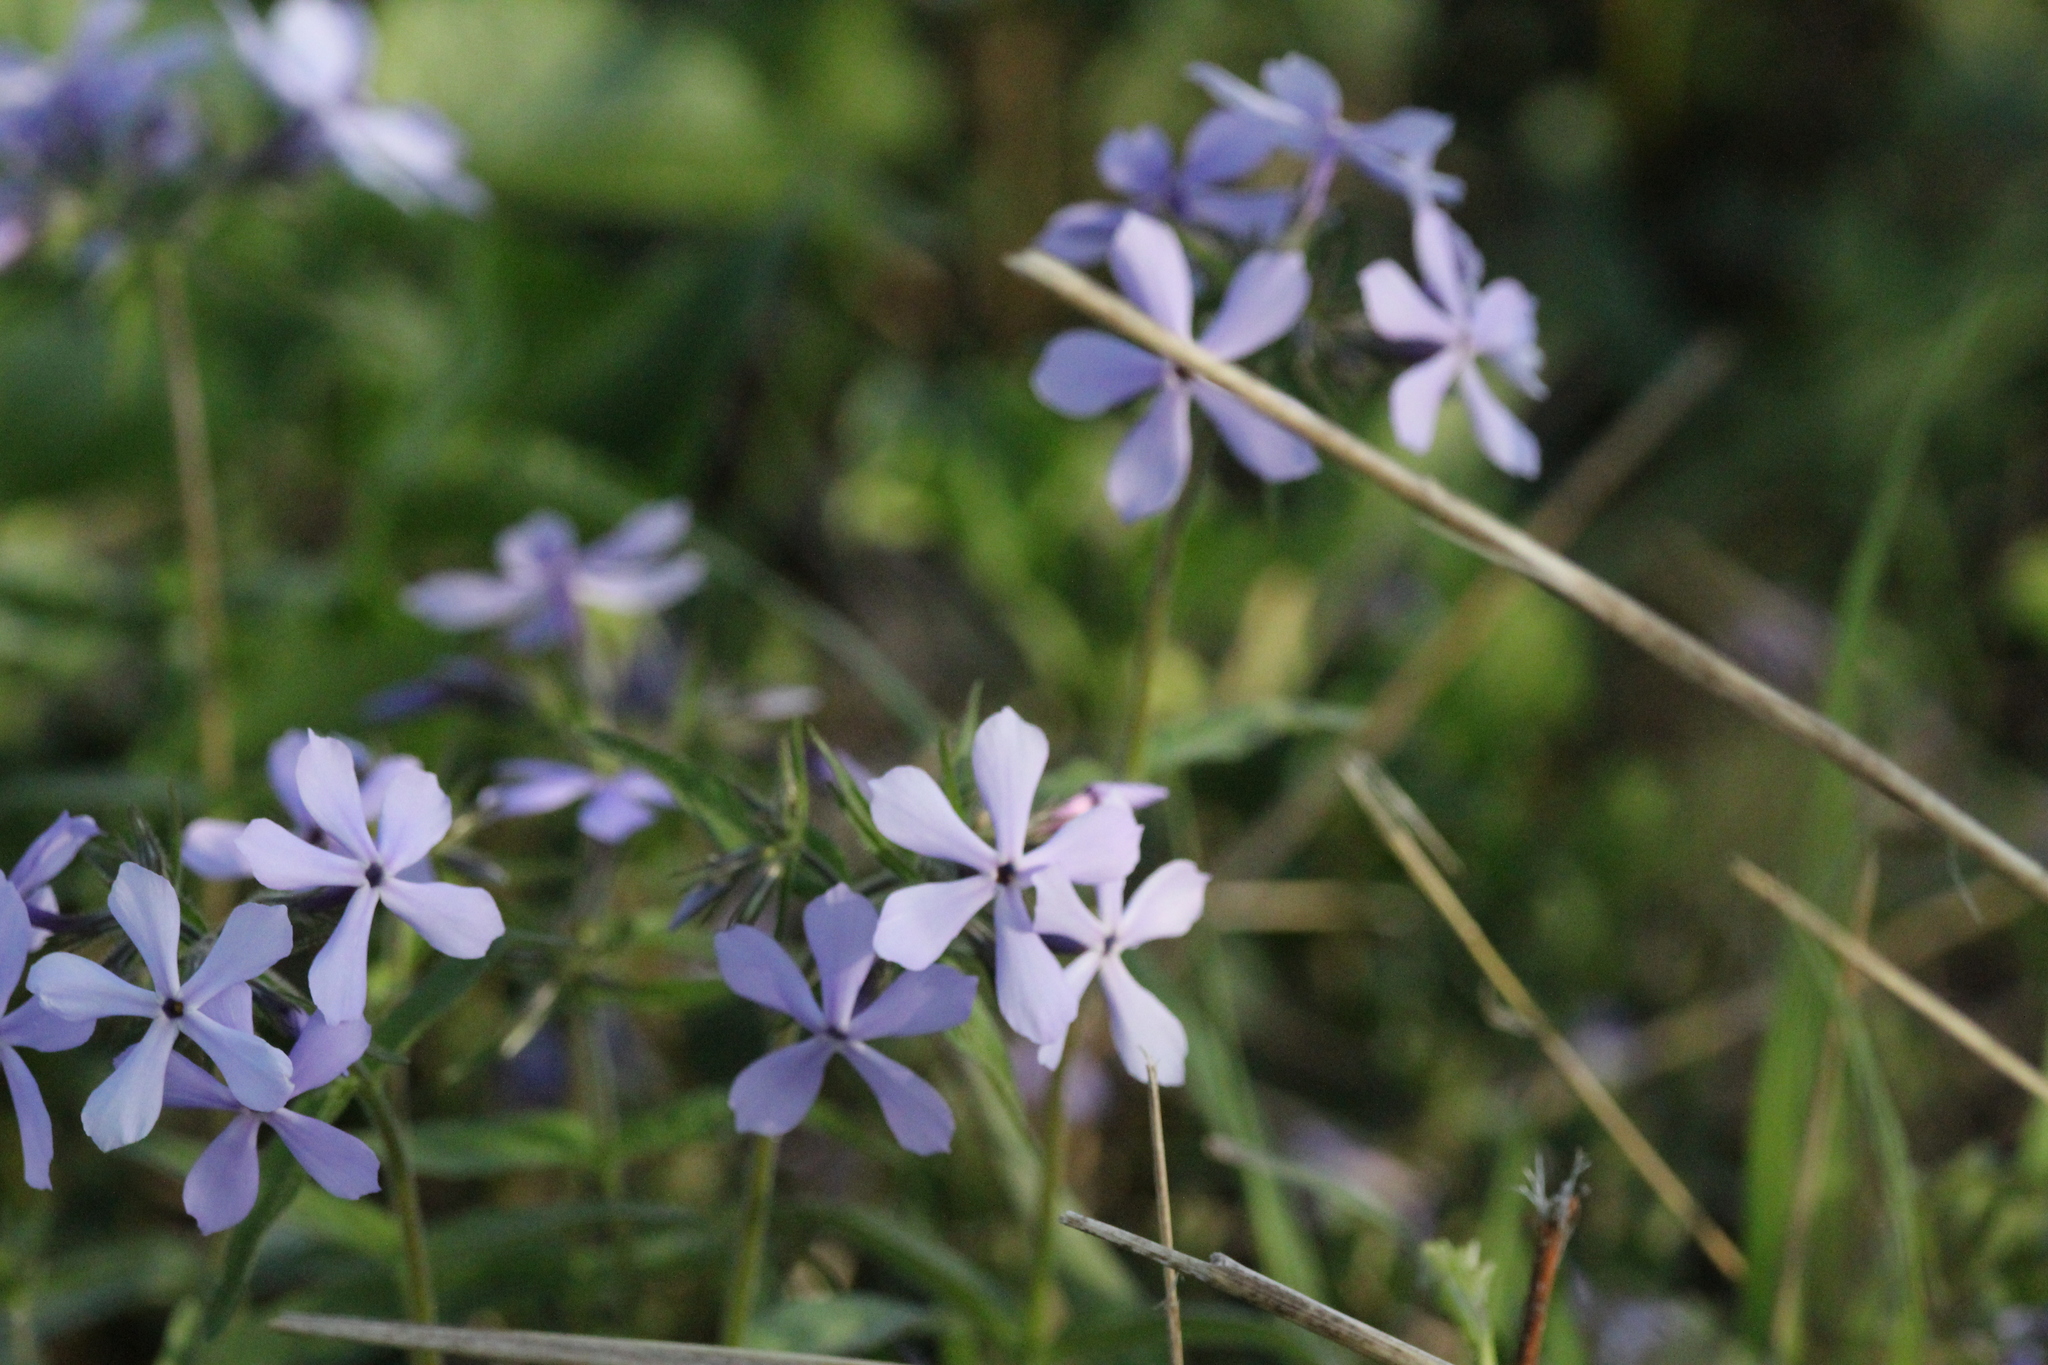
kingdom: Plantae
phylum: Tracheophyta
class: Magnoliopsida
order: Ericales
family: Polemoniaceae
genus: Phlox
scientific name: Phlox divaricata
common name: Blue phlox
